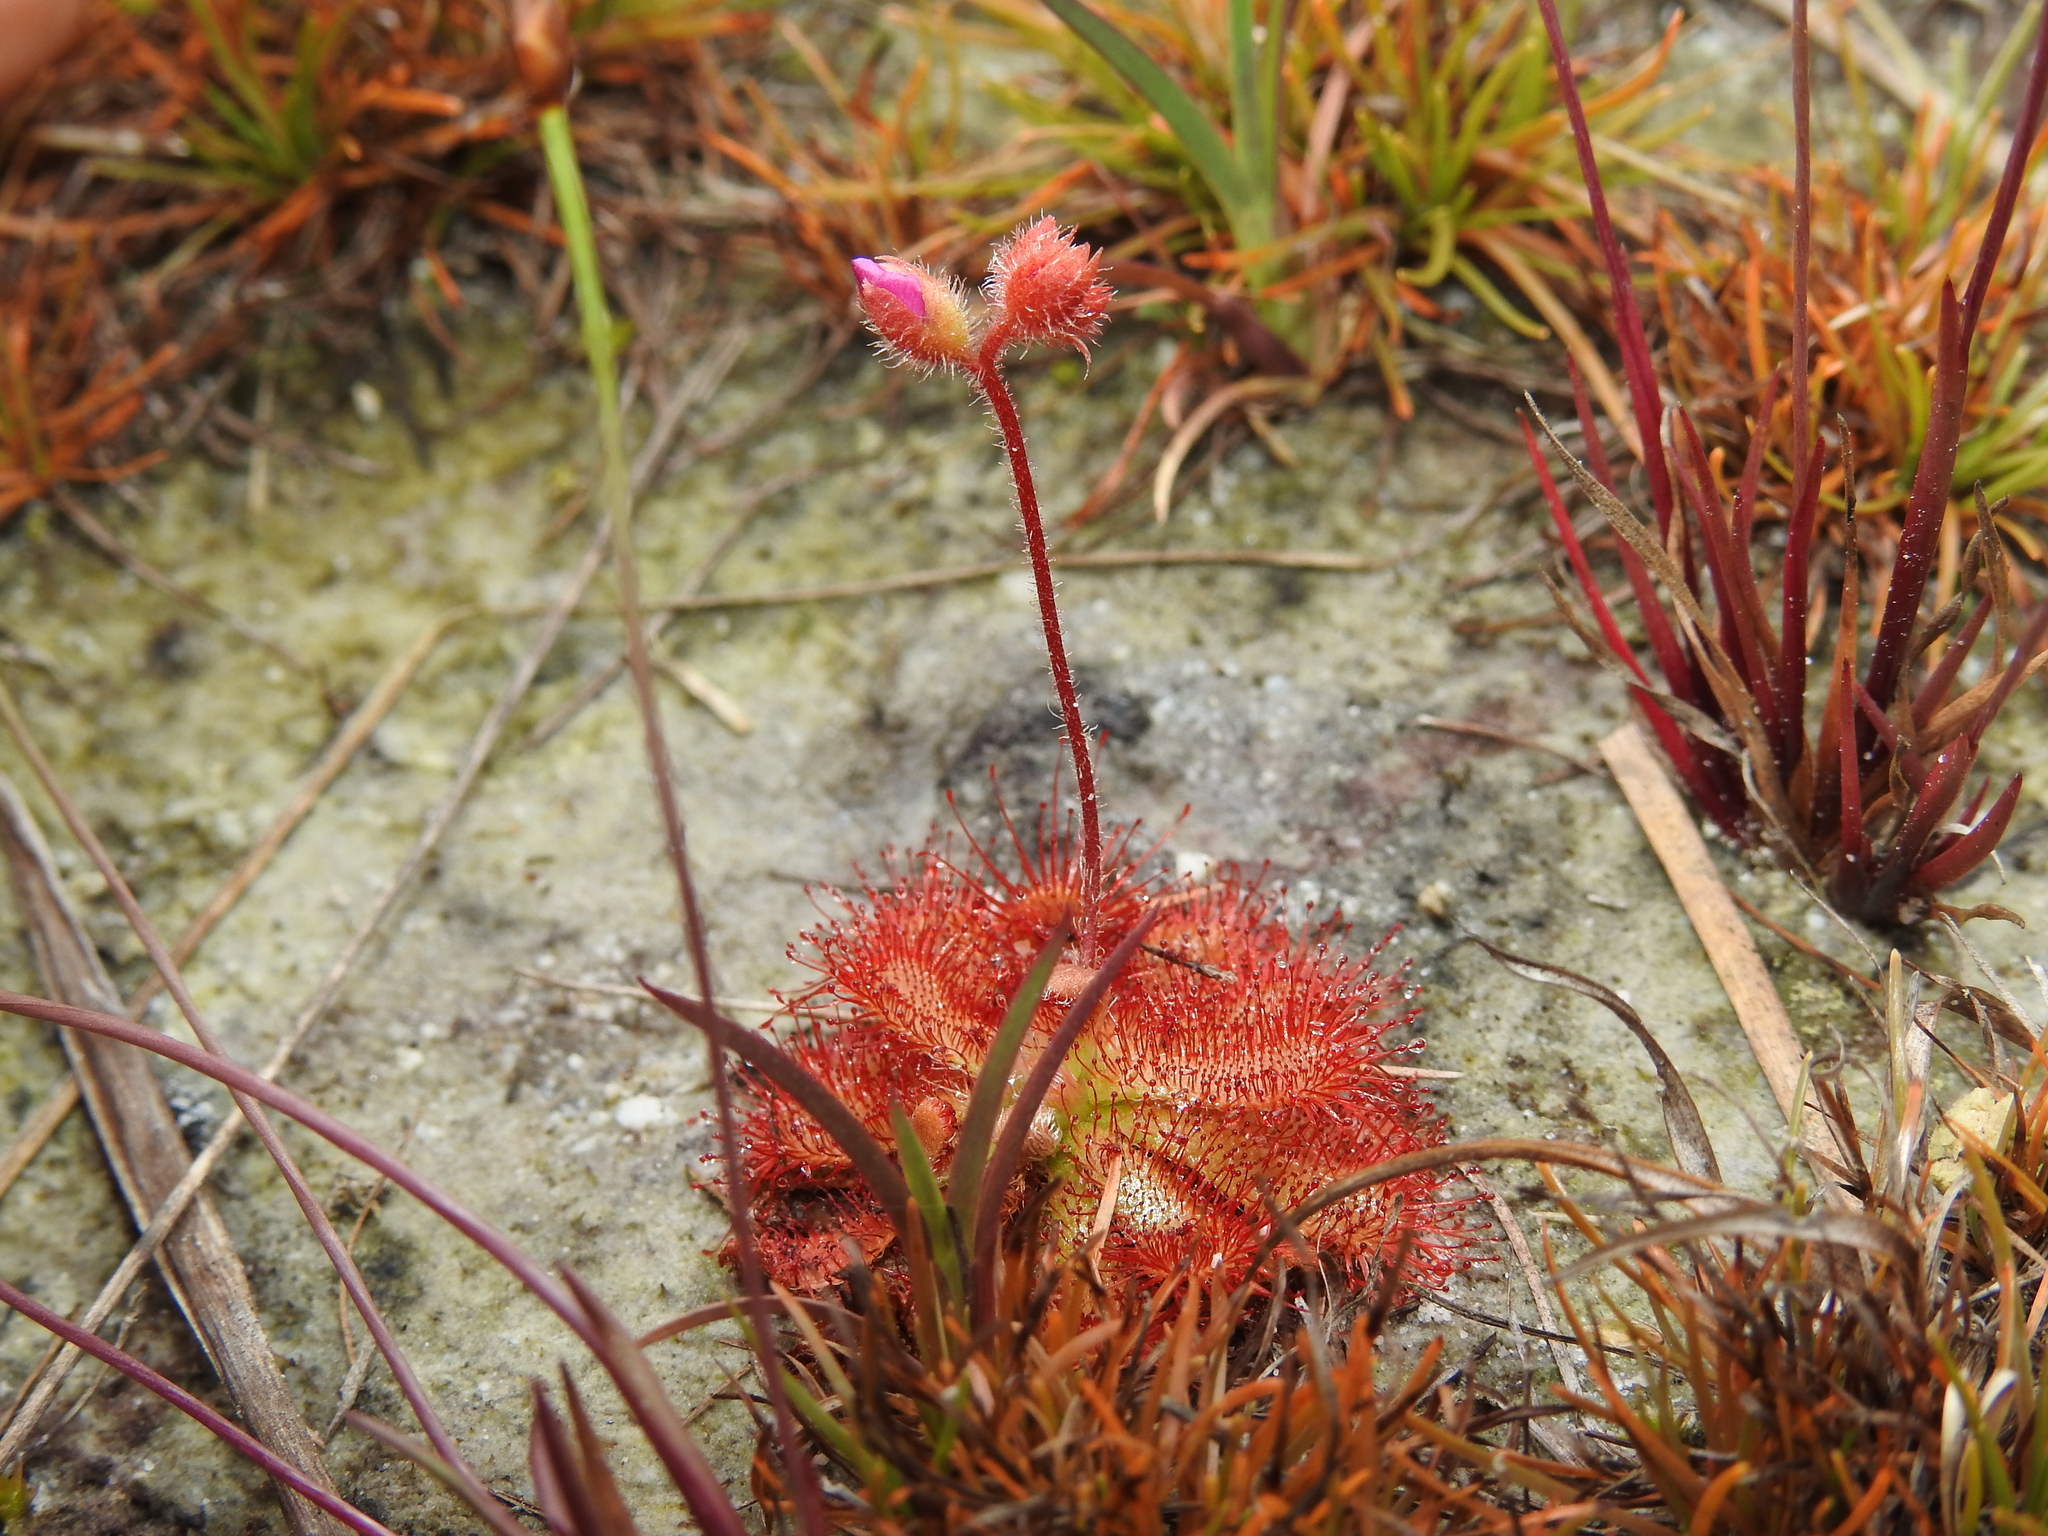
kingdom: Plantae
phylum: Tracheophyta
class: Magnoliopsida
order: Caryophyllales
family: Droseraceae
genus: Drosera
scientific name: Drosera spatulata
